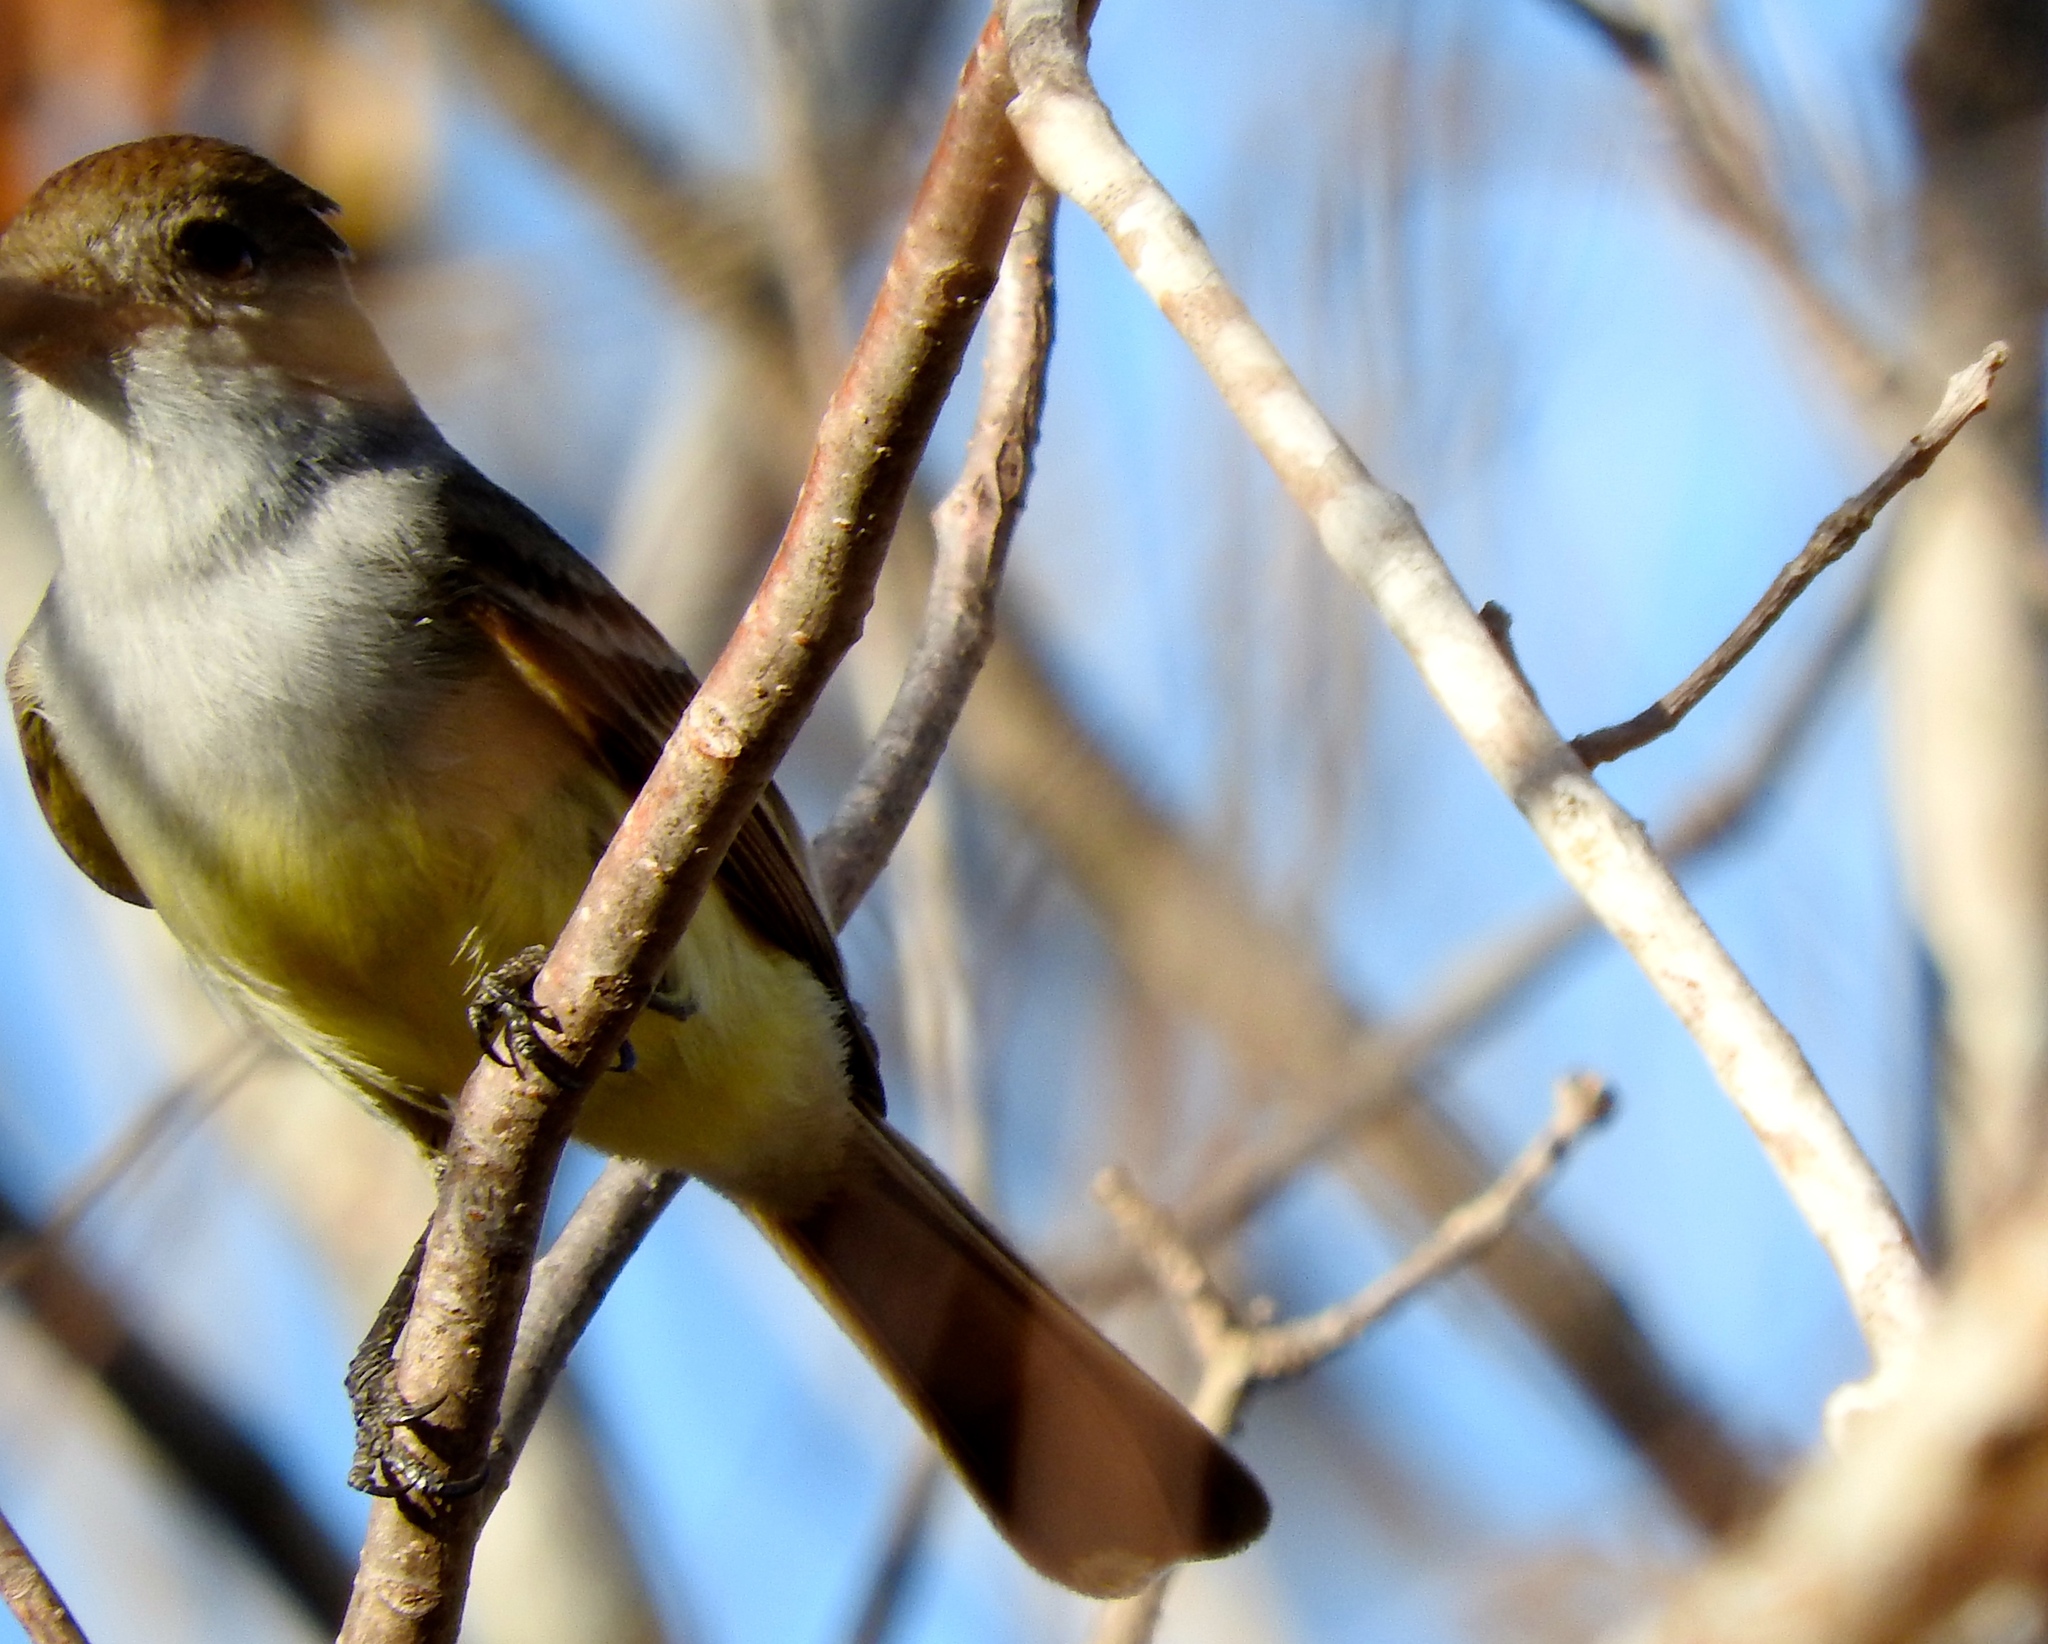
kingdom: Animalia
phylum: Chordata
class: Aves
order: Passeriformes
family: Tyrannidae
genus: Myiarchus
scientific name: Myiarchus
